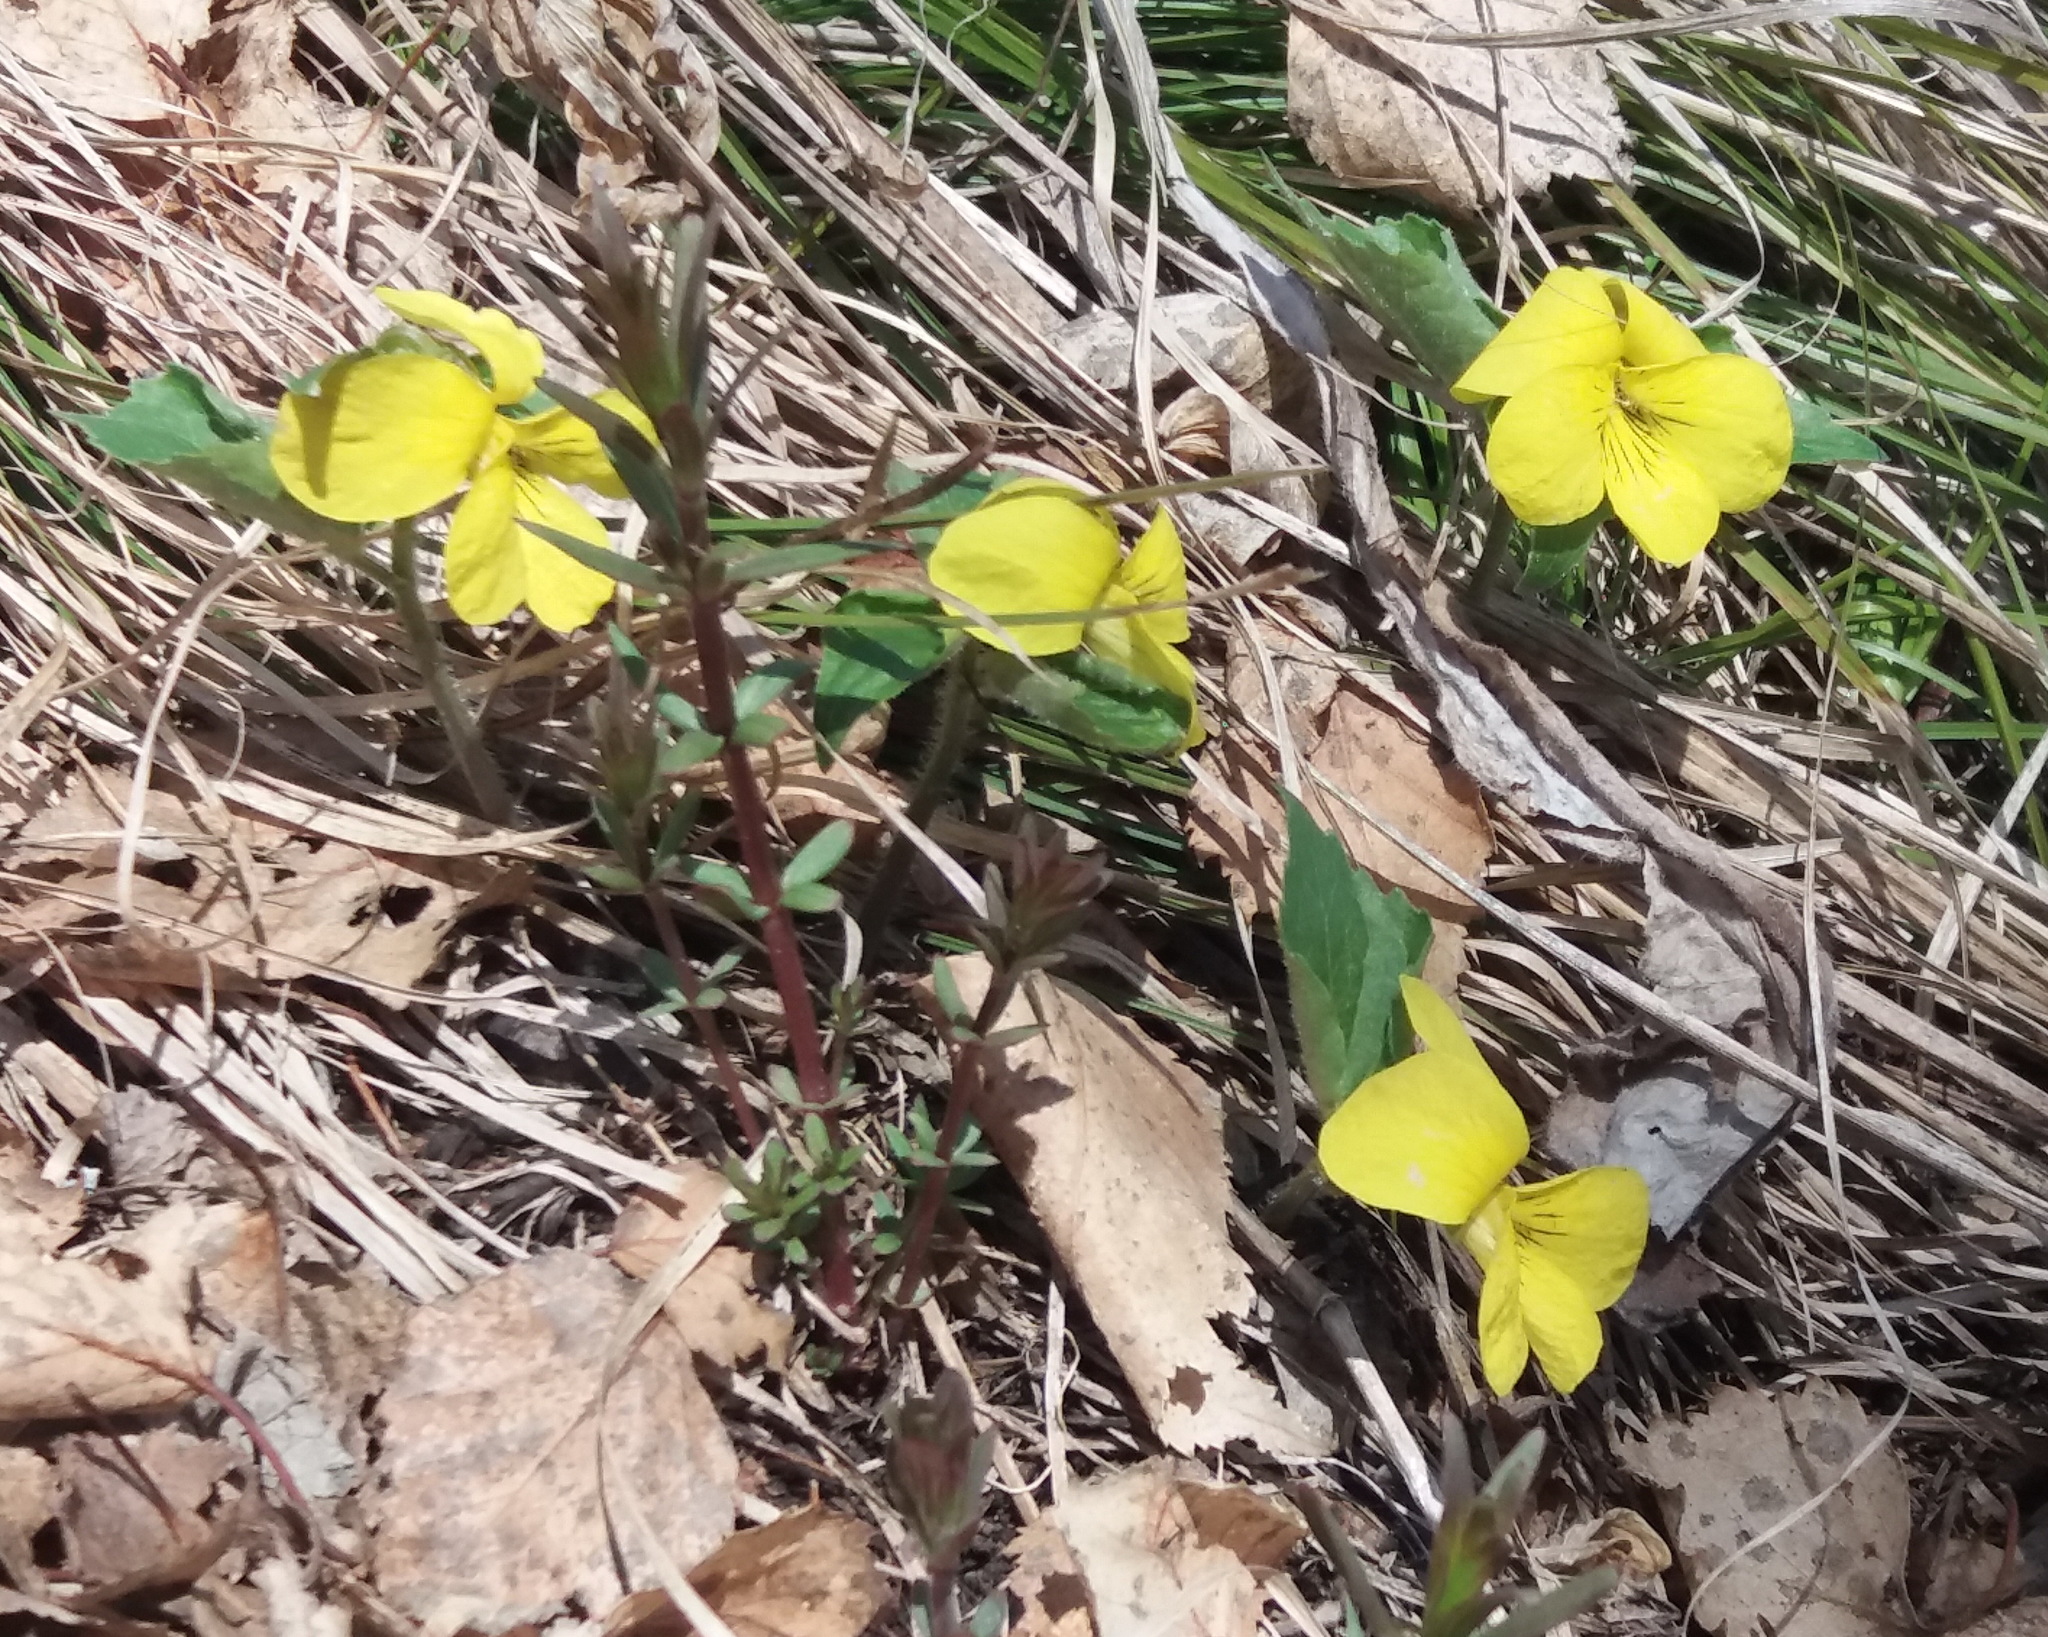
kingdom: Plantae
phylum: Tracheophyta
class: Magnoliopsida
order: Malpighiales
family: Violaceae
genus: Viola
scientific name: Viola uniflora
